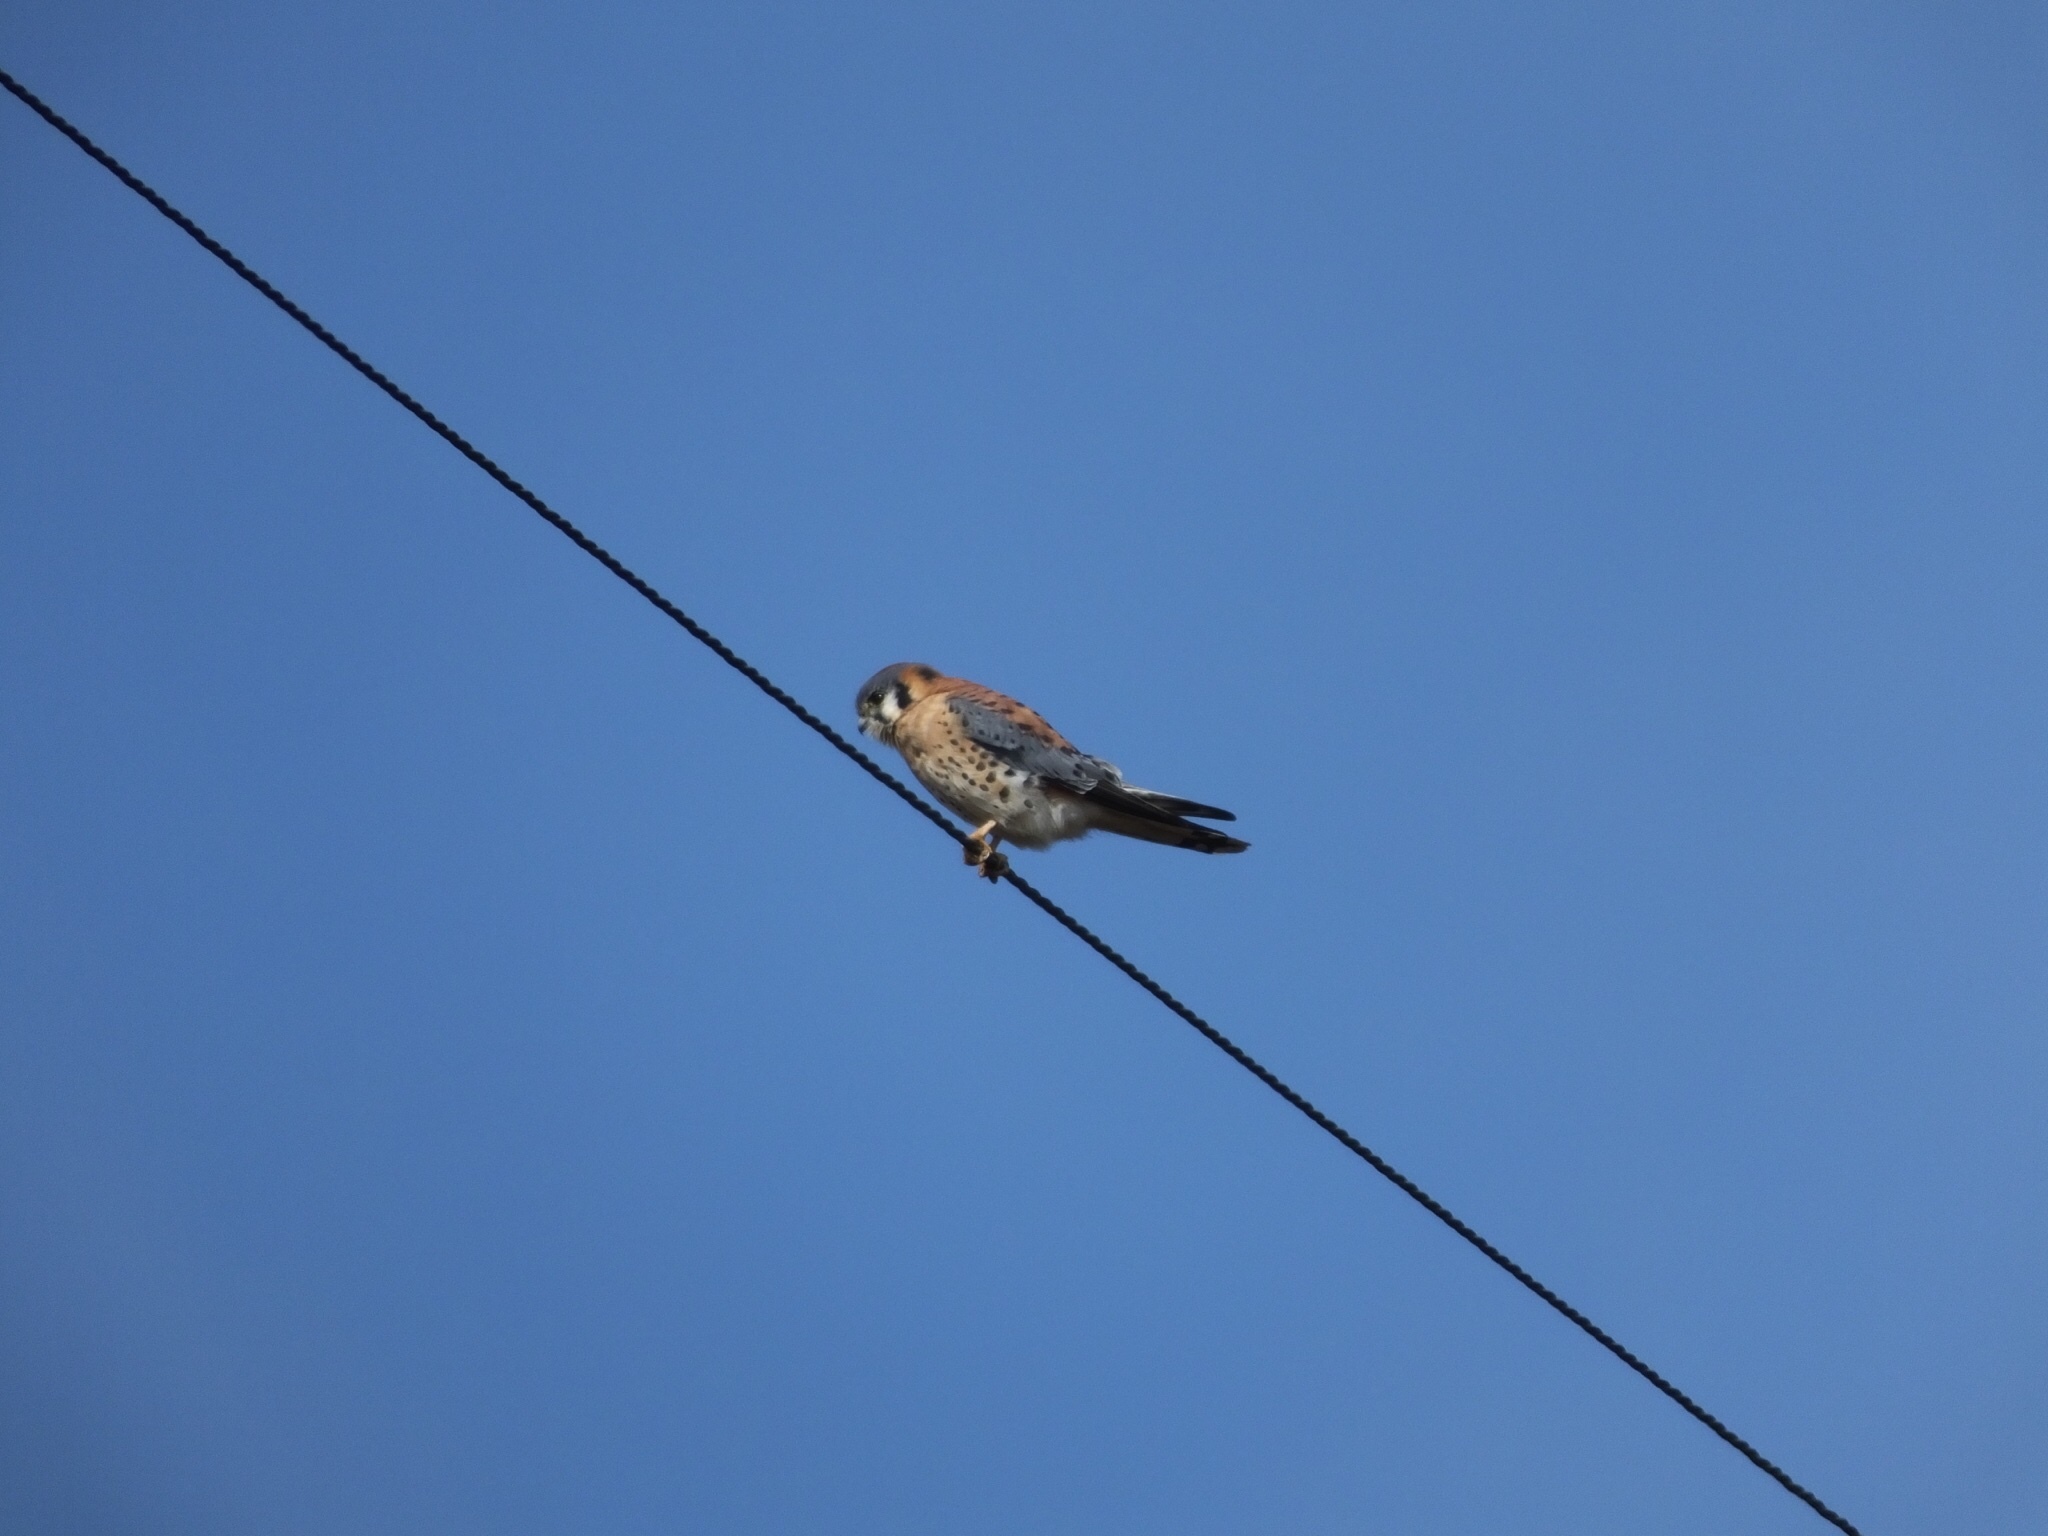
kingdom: Animalia
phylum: Chordata
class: Aves
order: Falconiformes
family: Falconidae
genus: Falco
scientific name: Falco sparverius
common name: American kestrel
